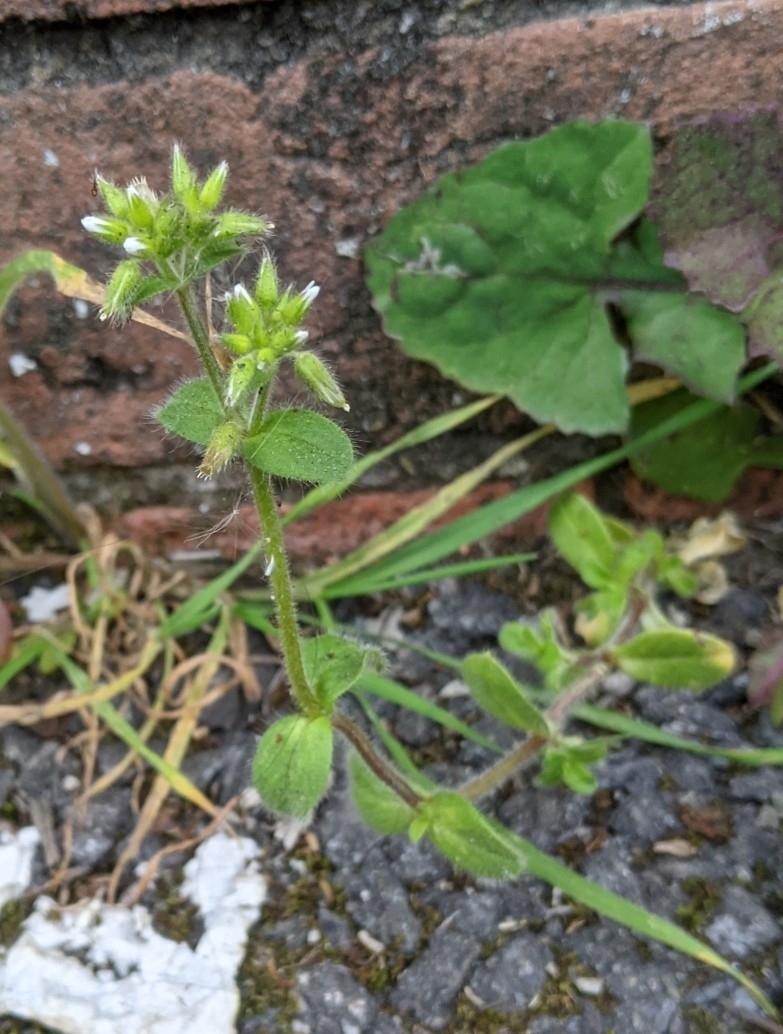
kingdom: Plantae
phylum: Tracheophyta
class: Magnoliopsida
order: Caryophyllales
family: Caryophyllaceae
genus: Cerastium
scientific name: Cerastium glomeratum
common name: Sticky chickweed
